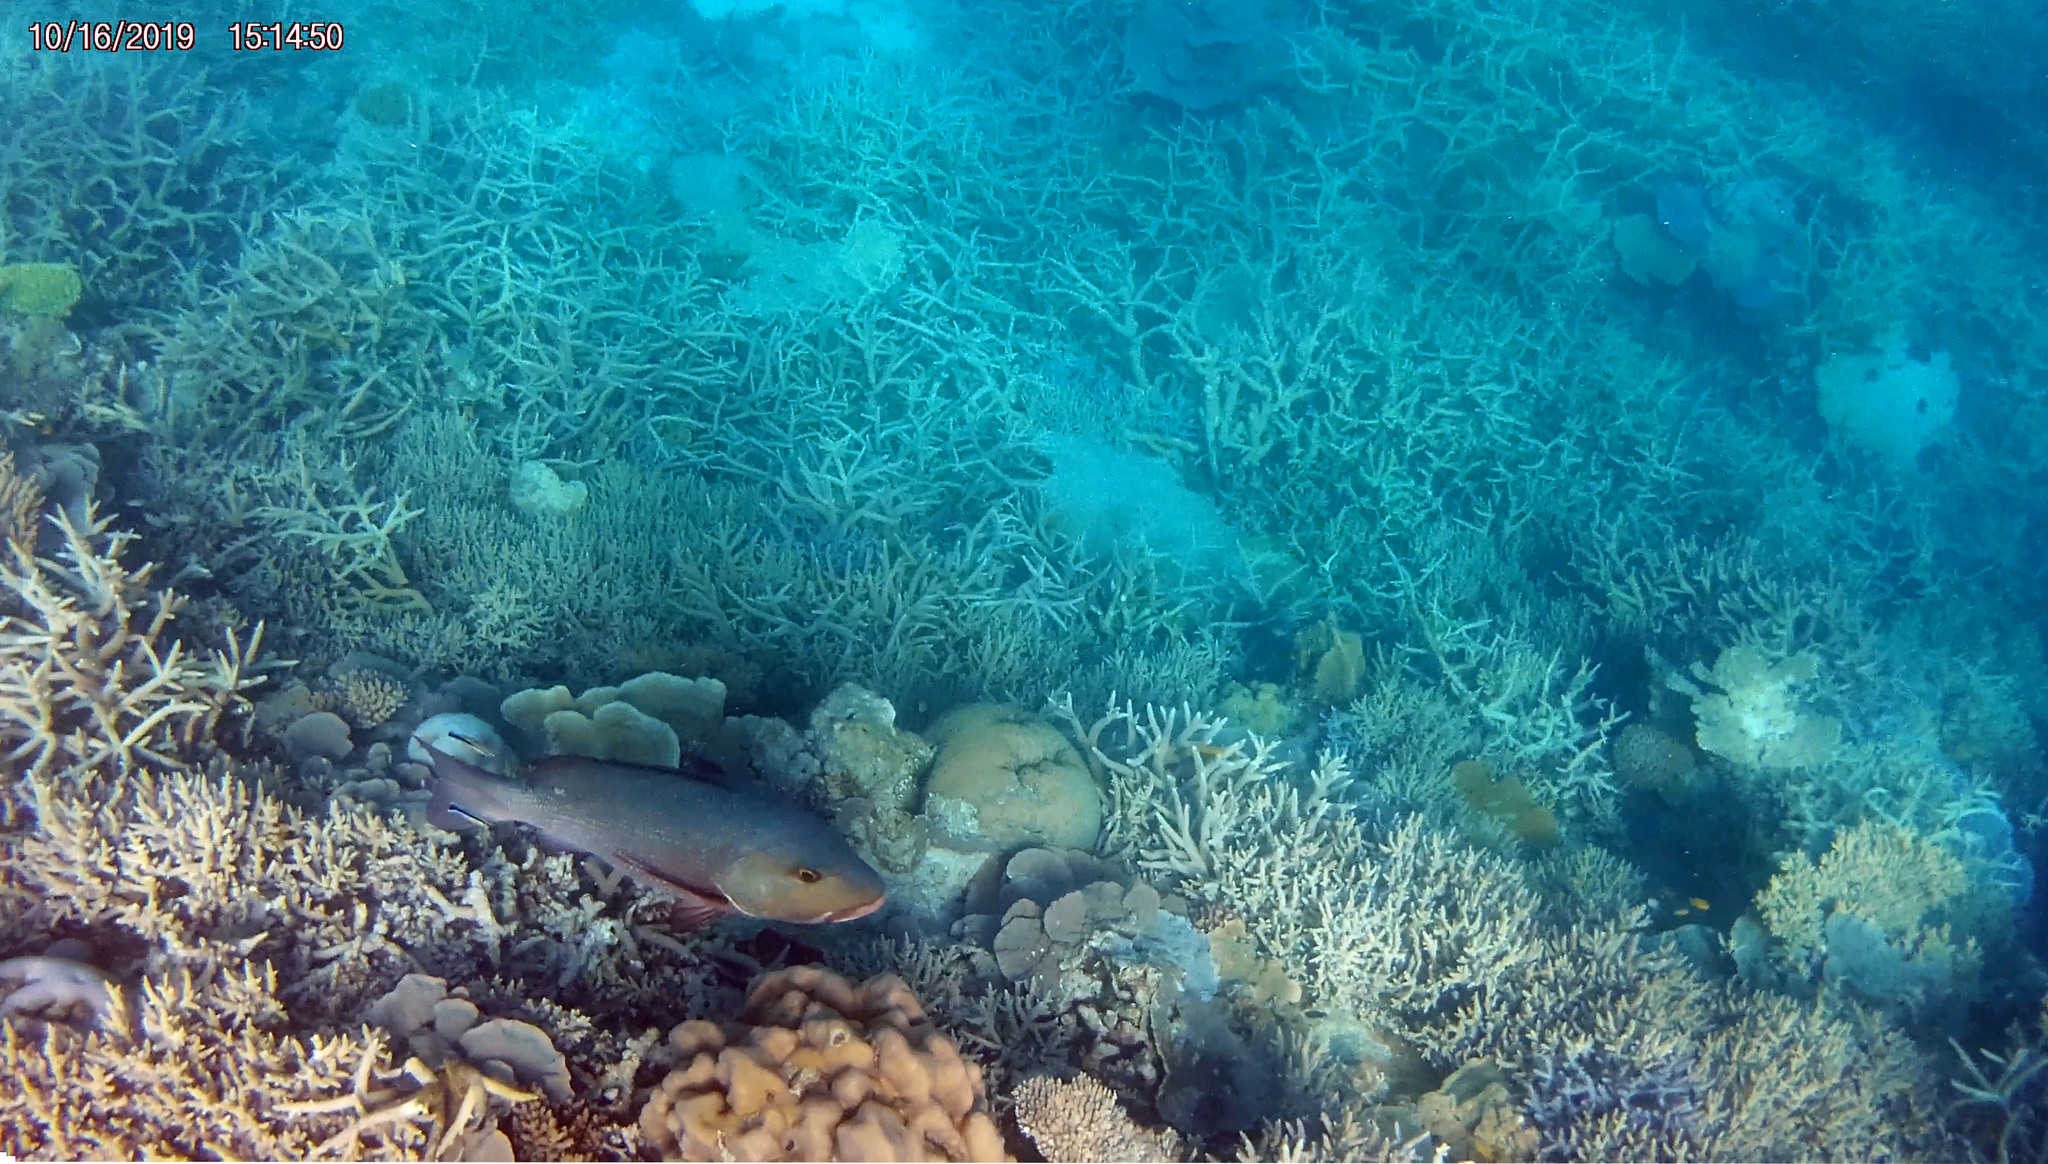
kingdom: Animalia
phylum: Chordata
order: Perciformes
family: Lutjanidae
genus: Lutjanus
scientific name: Lutjanus bohar
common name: Red bass
